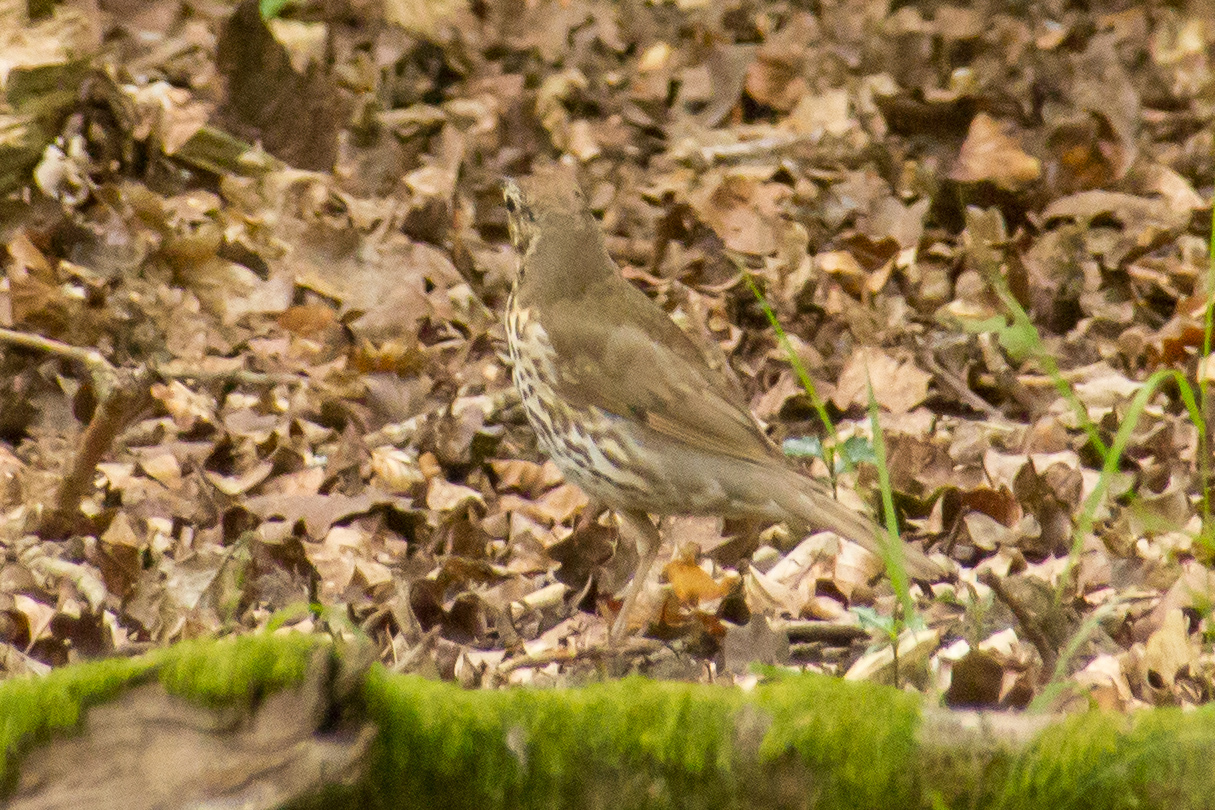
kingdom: Animalia
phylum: Chordata
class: Aves
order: Passeriformes
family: Turdidae
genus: Turdus
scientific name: Turdus philomelos
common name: Song thrush
